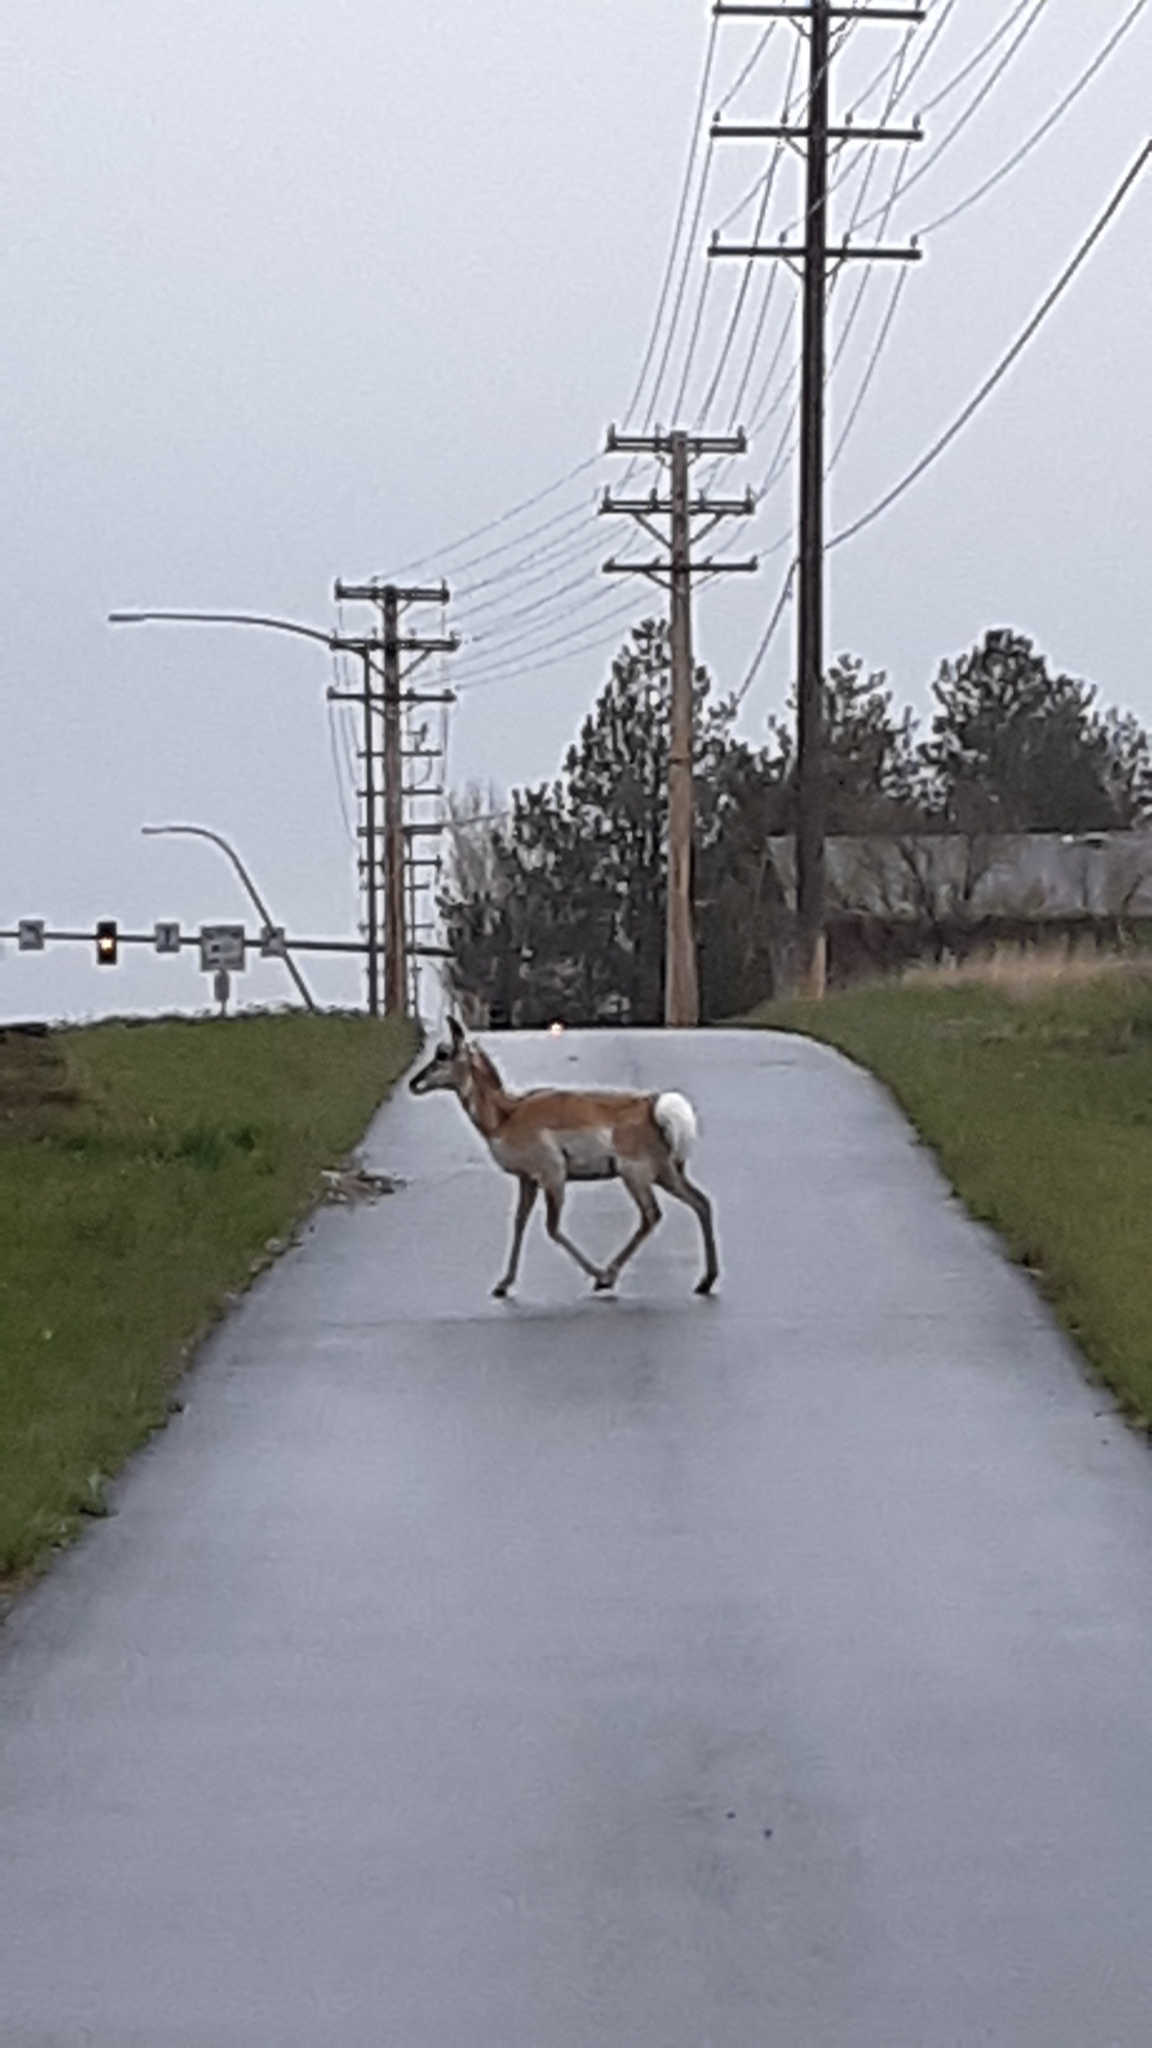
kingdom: Animalia
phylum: Chordata
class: Mammalia
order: Artiodactyla
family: Antilocapridae
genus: Antilocapra
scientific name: Antilocapra americana
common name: Pronghorn
